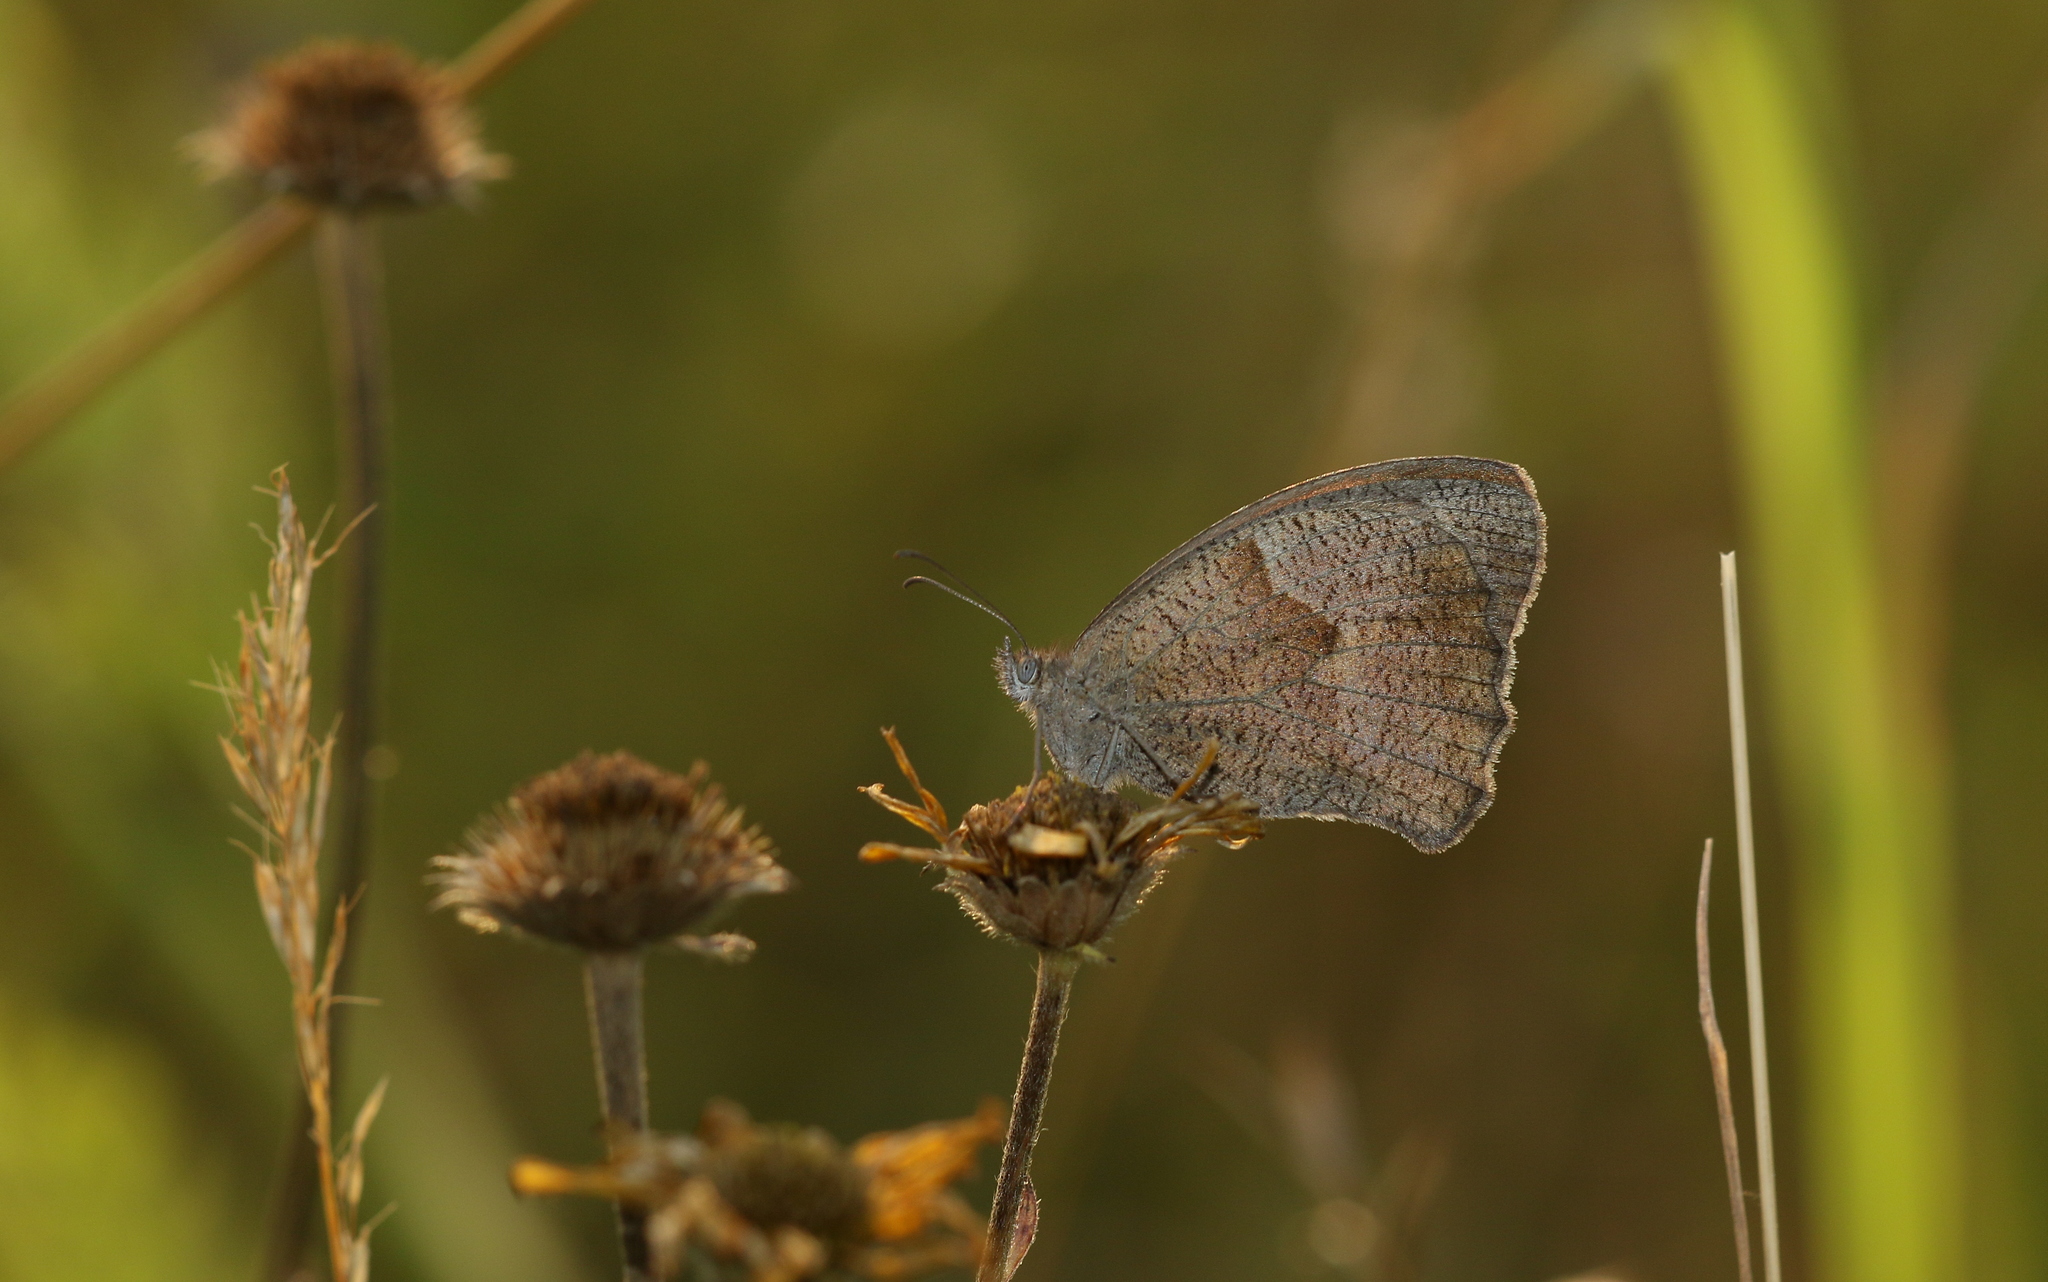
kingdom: Animalia
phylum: Arthropoda
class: Insecta
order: Lepidoptera
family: Nymphalidae
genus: Maniola
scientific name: Maniola jurtina
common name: Meadow brown
